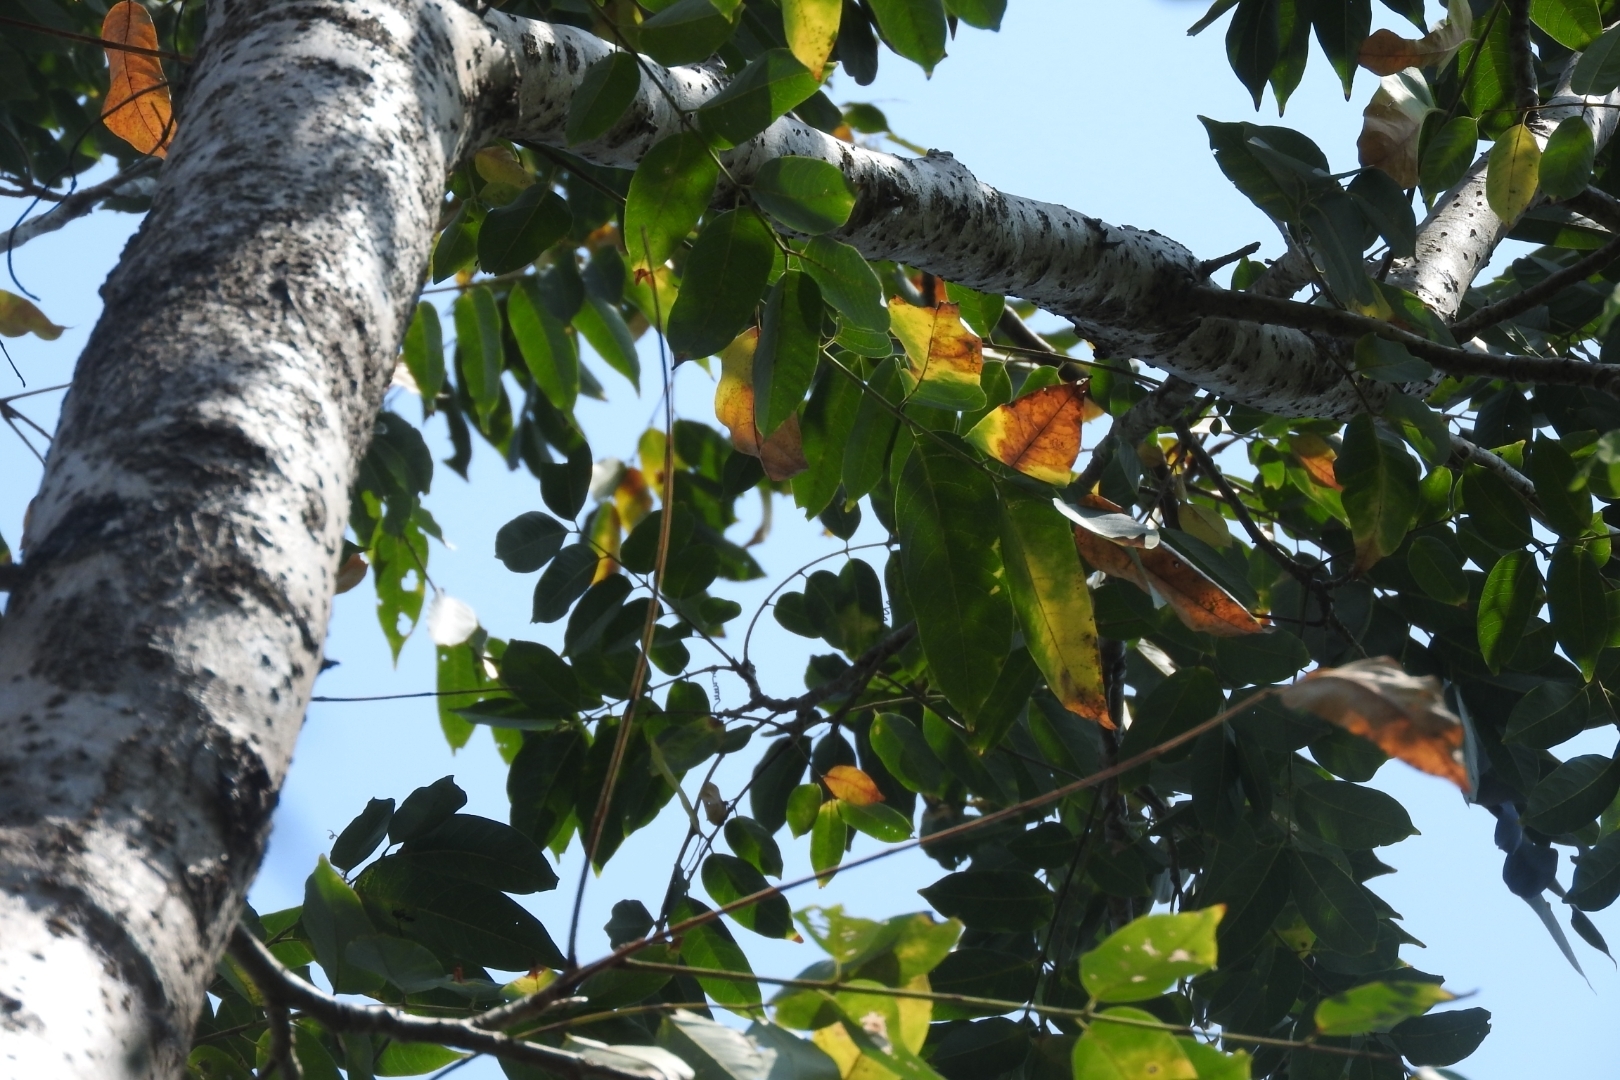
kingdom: Plantae
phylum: Tracheophyta
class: Magnoliopsida
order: Sapindales
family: Meliaceae
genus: Cedrela
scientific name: Cedrela odorata
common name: Red cedar
